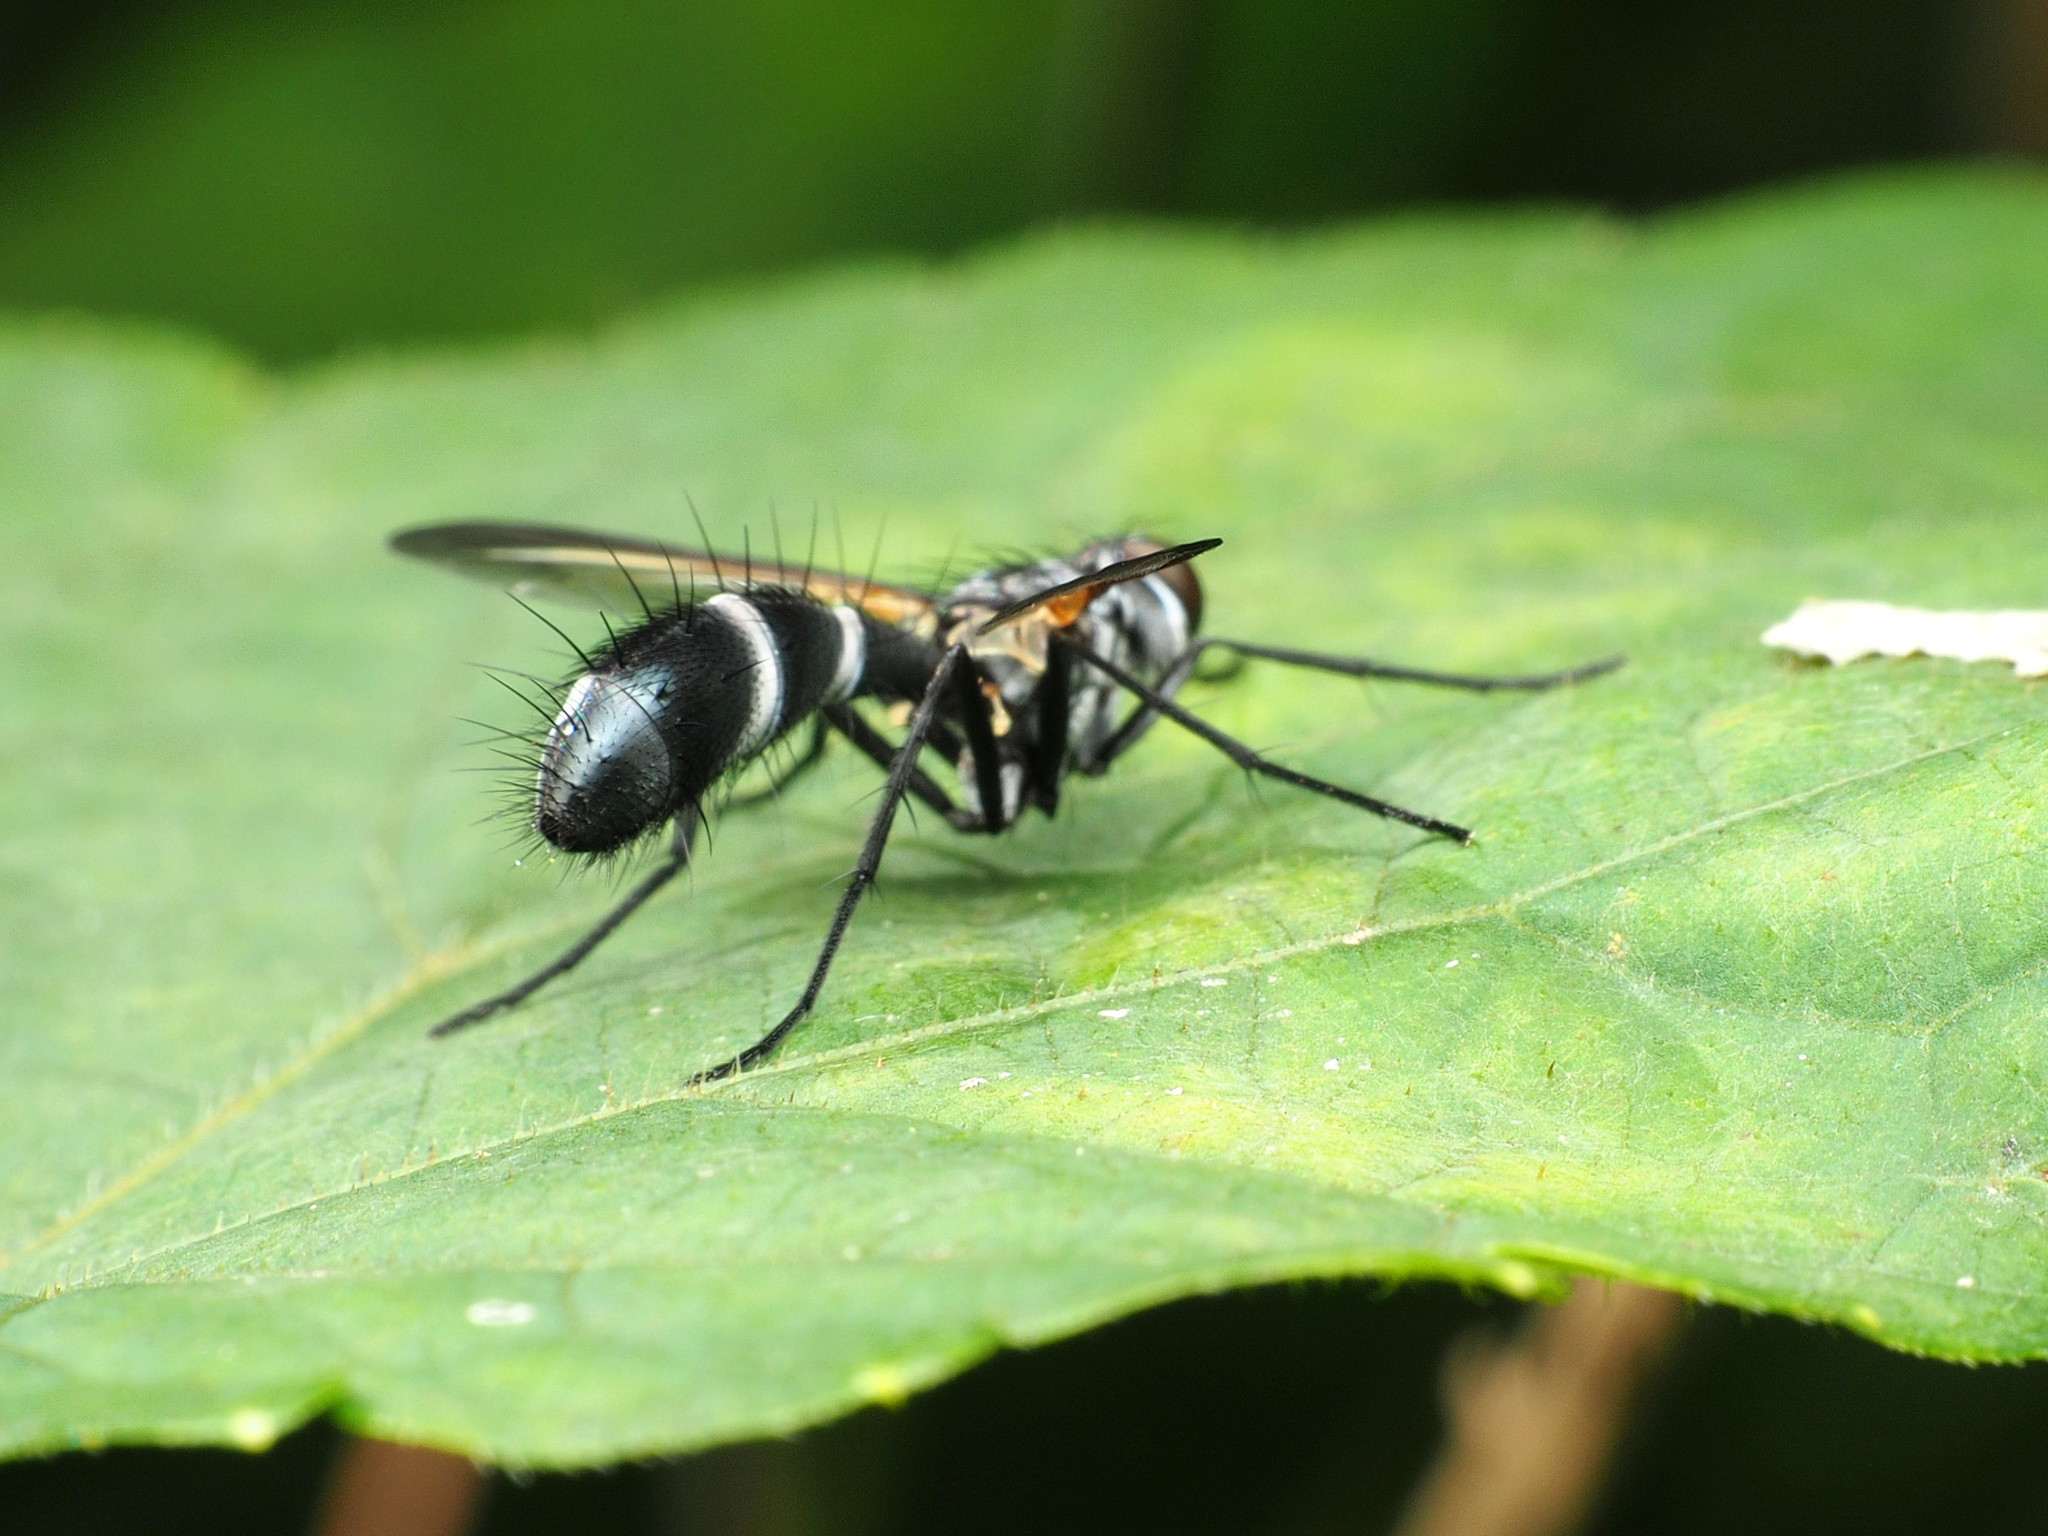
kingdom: Animalia
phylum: Arthropoda
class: Insecta
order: Diptera
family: Tachinidae
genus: Cordyligaster
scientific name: Cordyligaster septentrionalis
